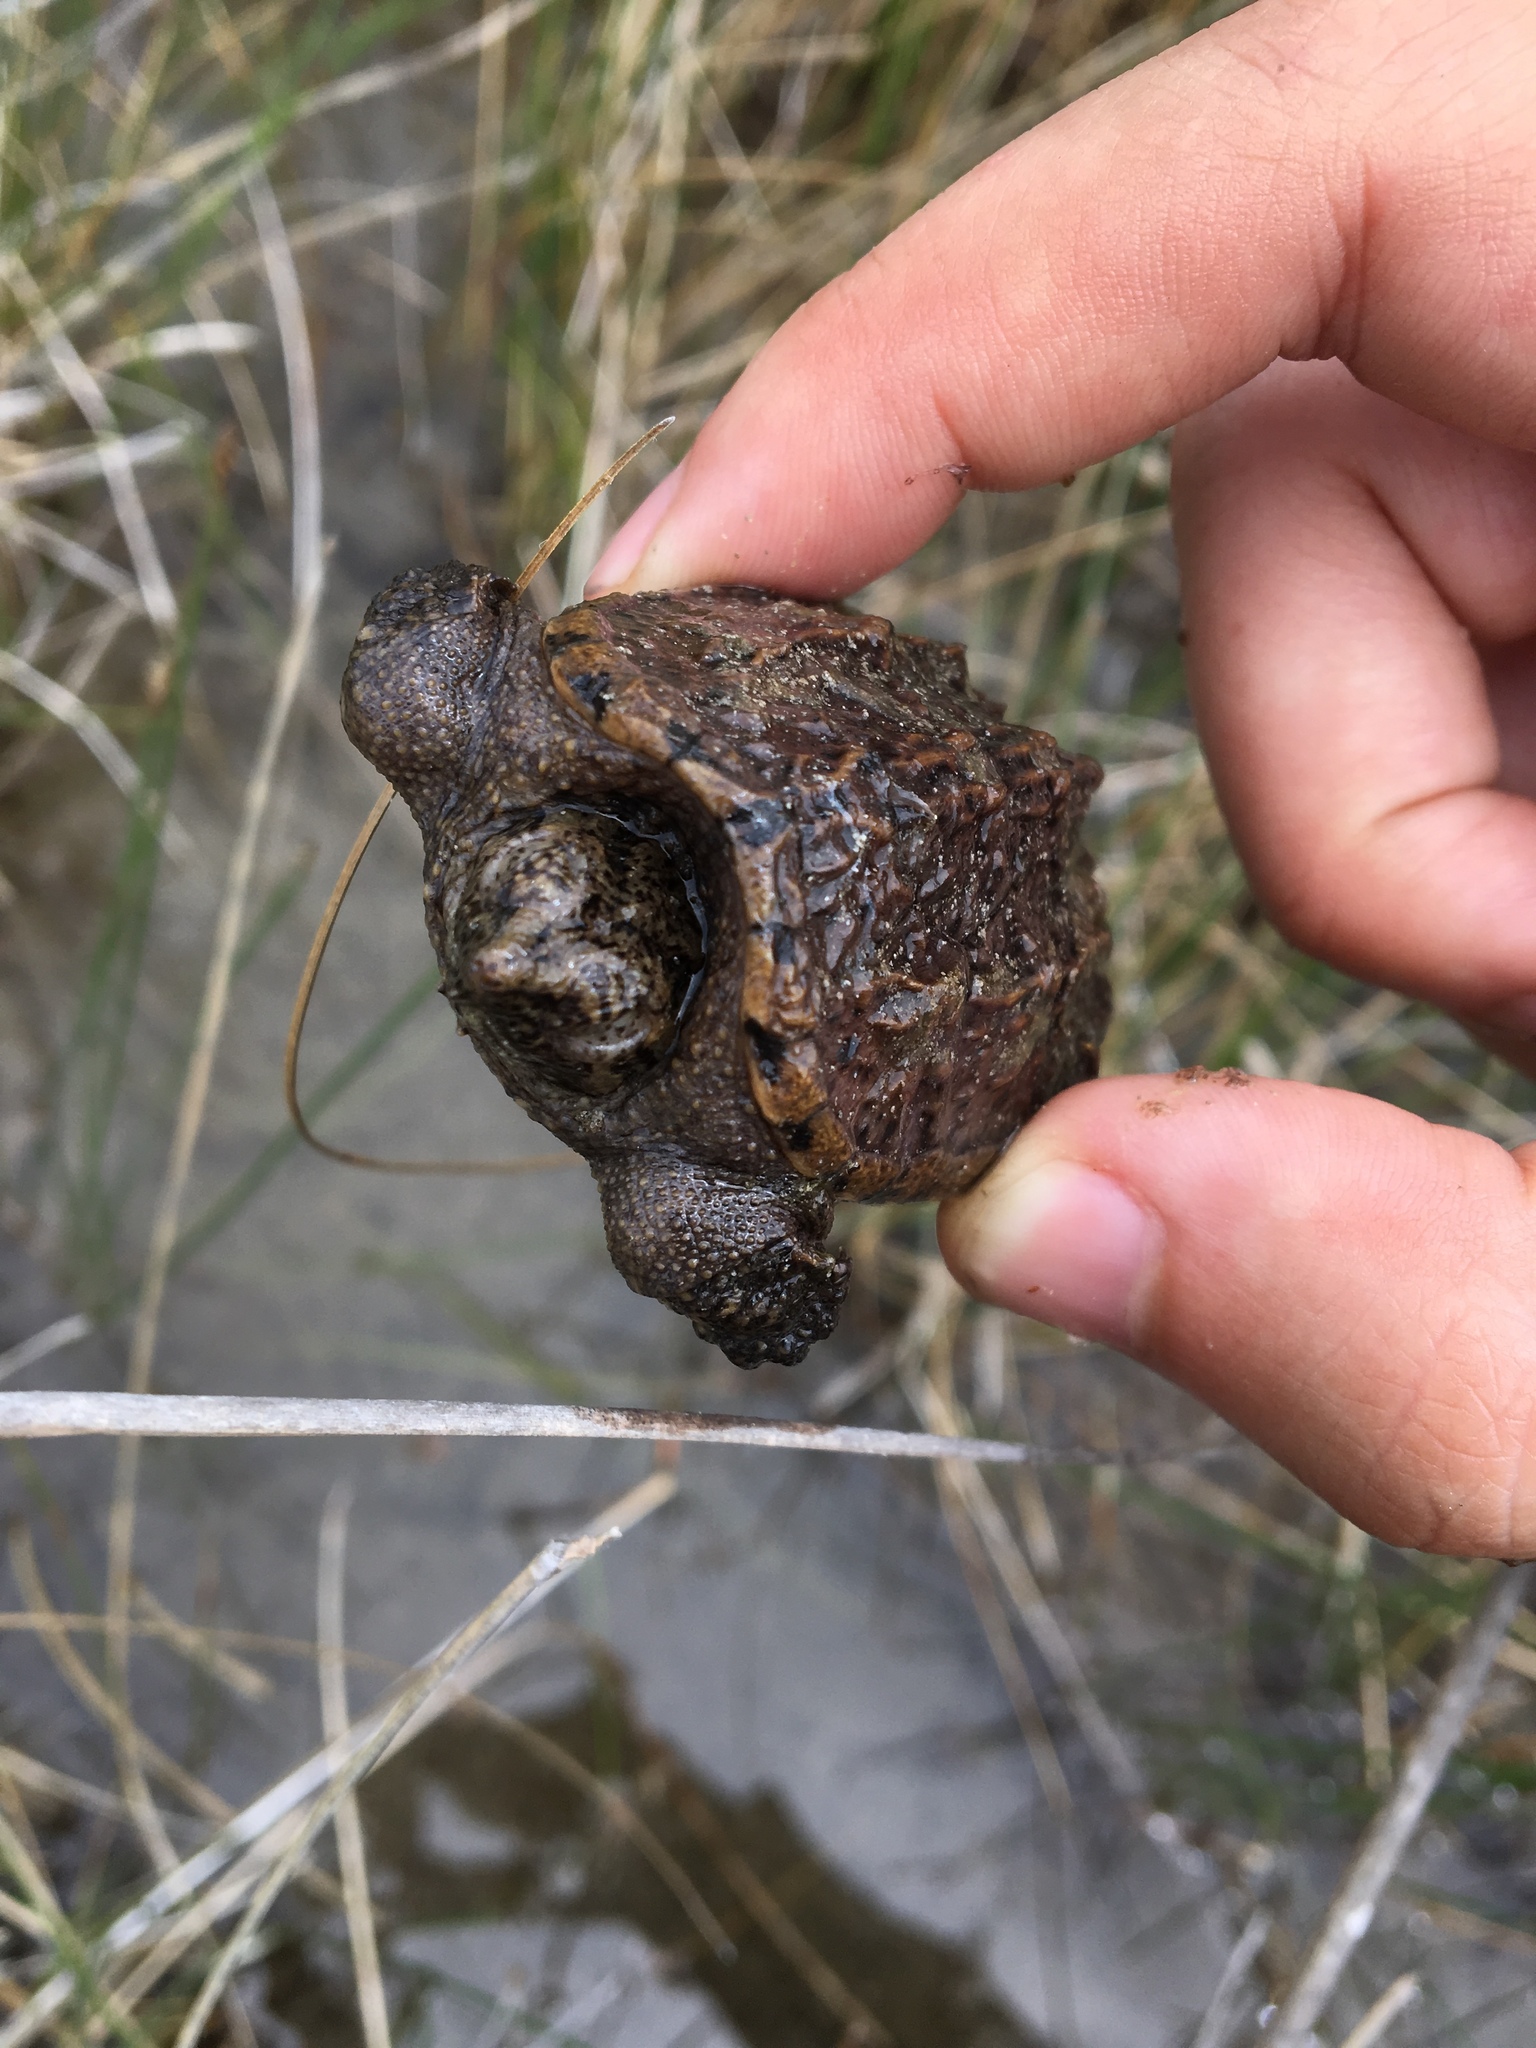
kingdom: Animalia
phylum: Chordata
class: Testudines
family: Chelydridae
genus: Chelydra
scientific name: Chelydra serpentina
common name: Common snapping turtle
